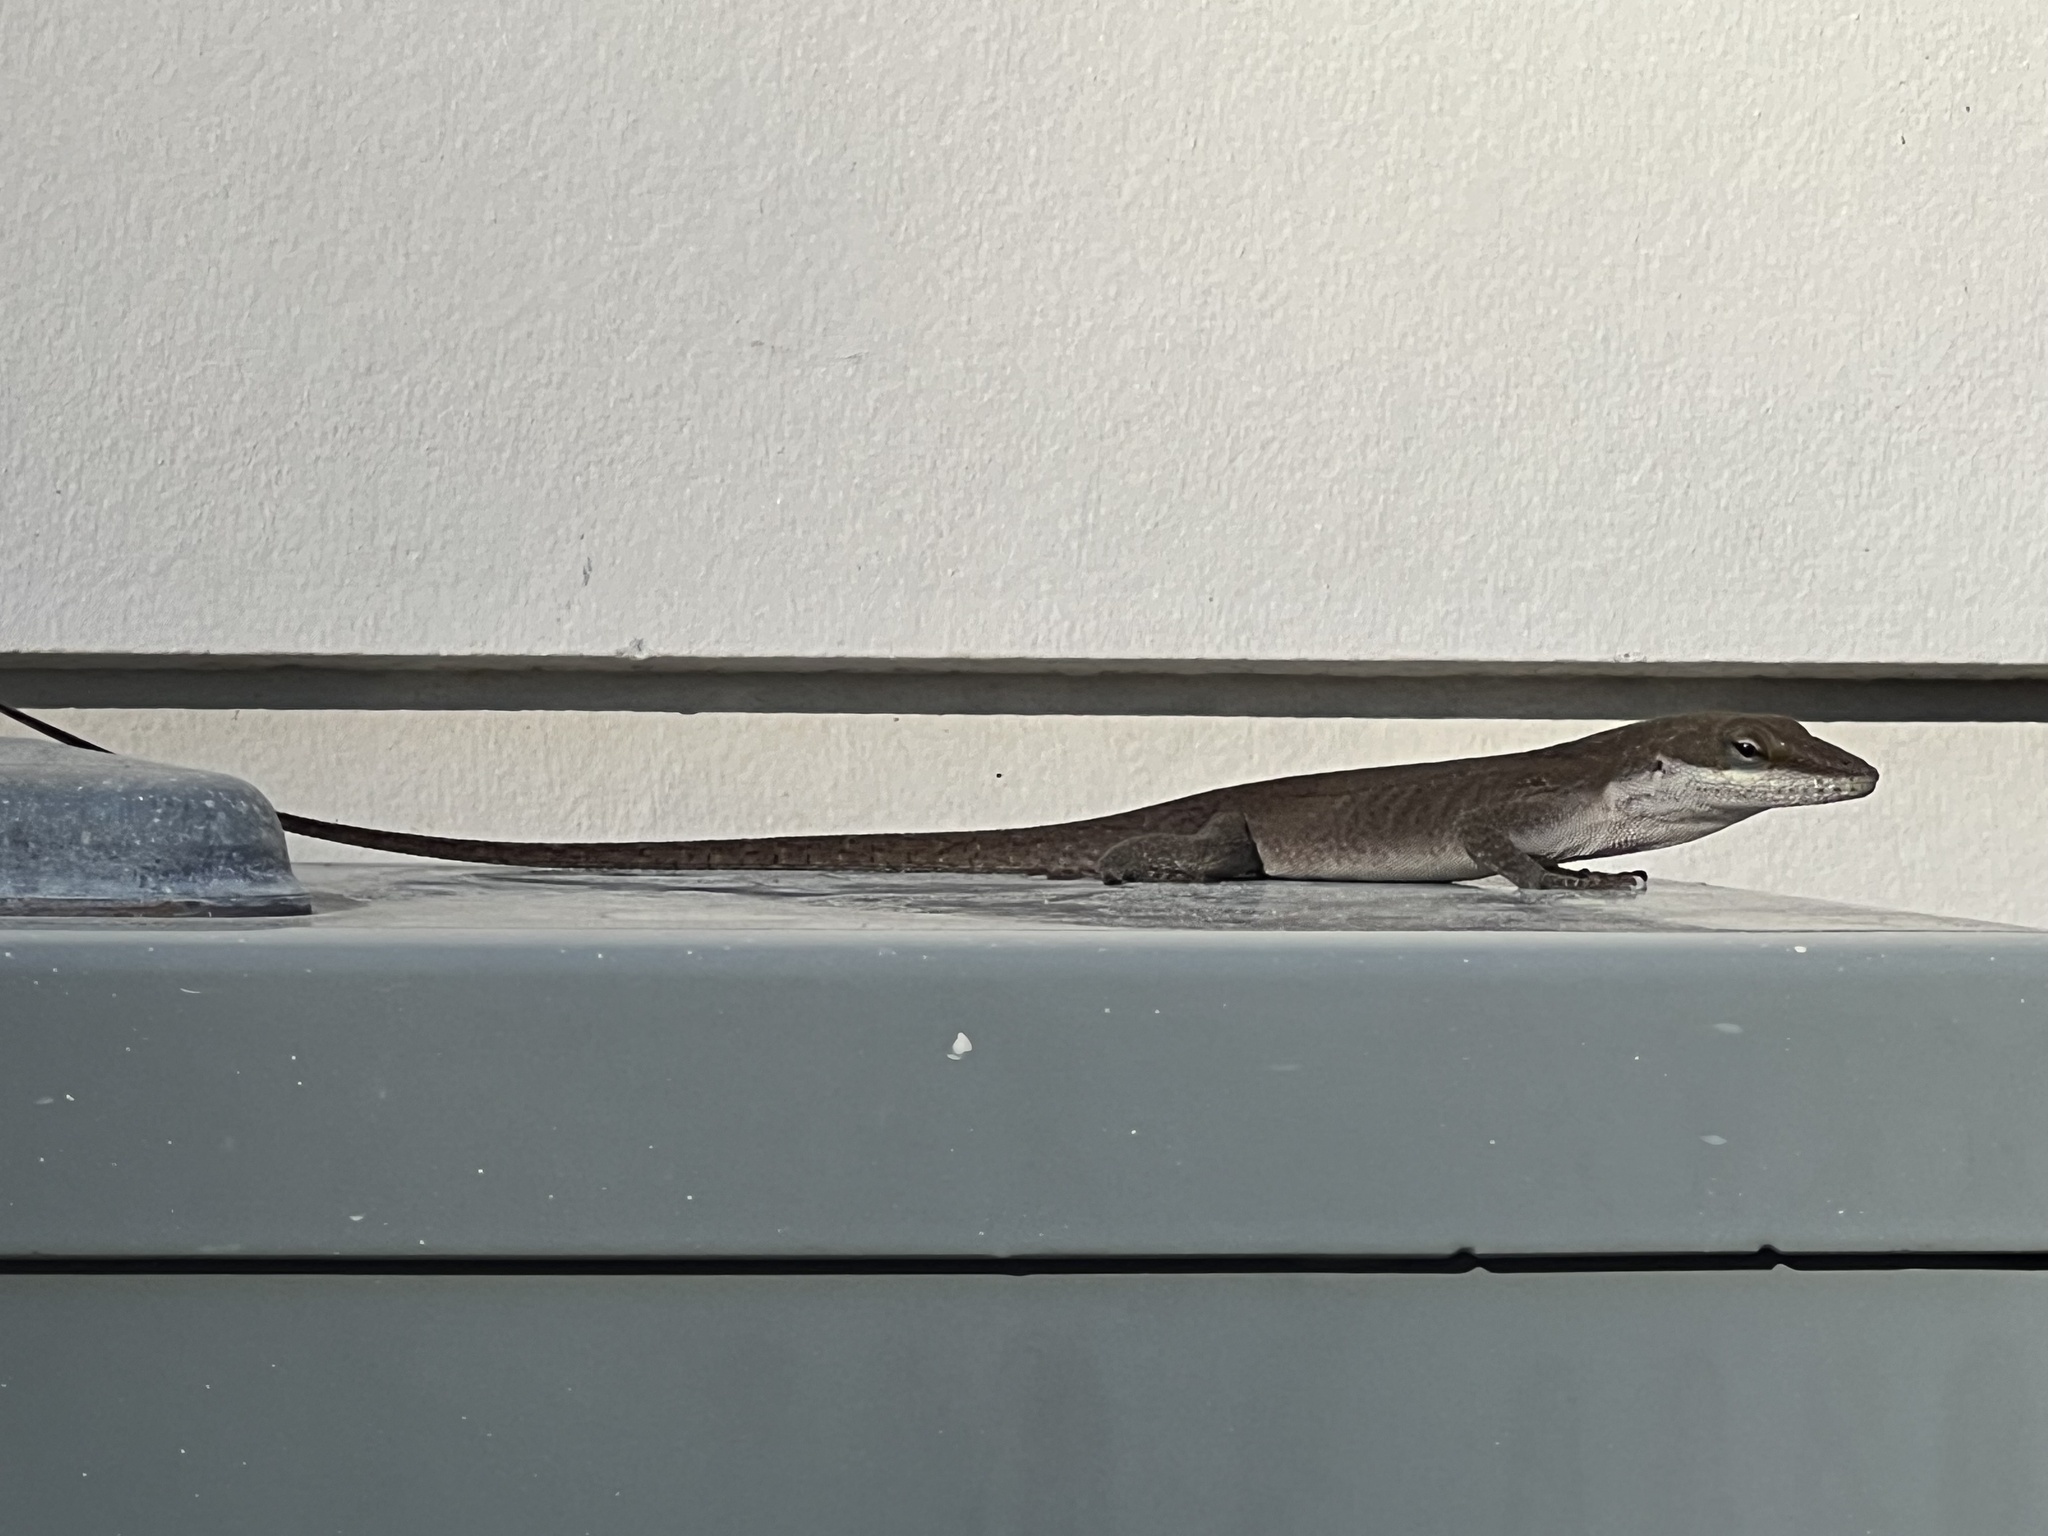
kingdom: Animalia
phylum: Chordata
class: Squamata
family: Dactyloidae
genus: Anolis
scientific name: Anolis carolinensis
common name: Green anole
